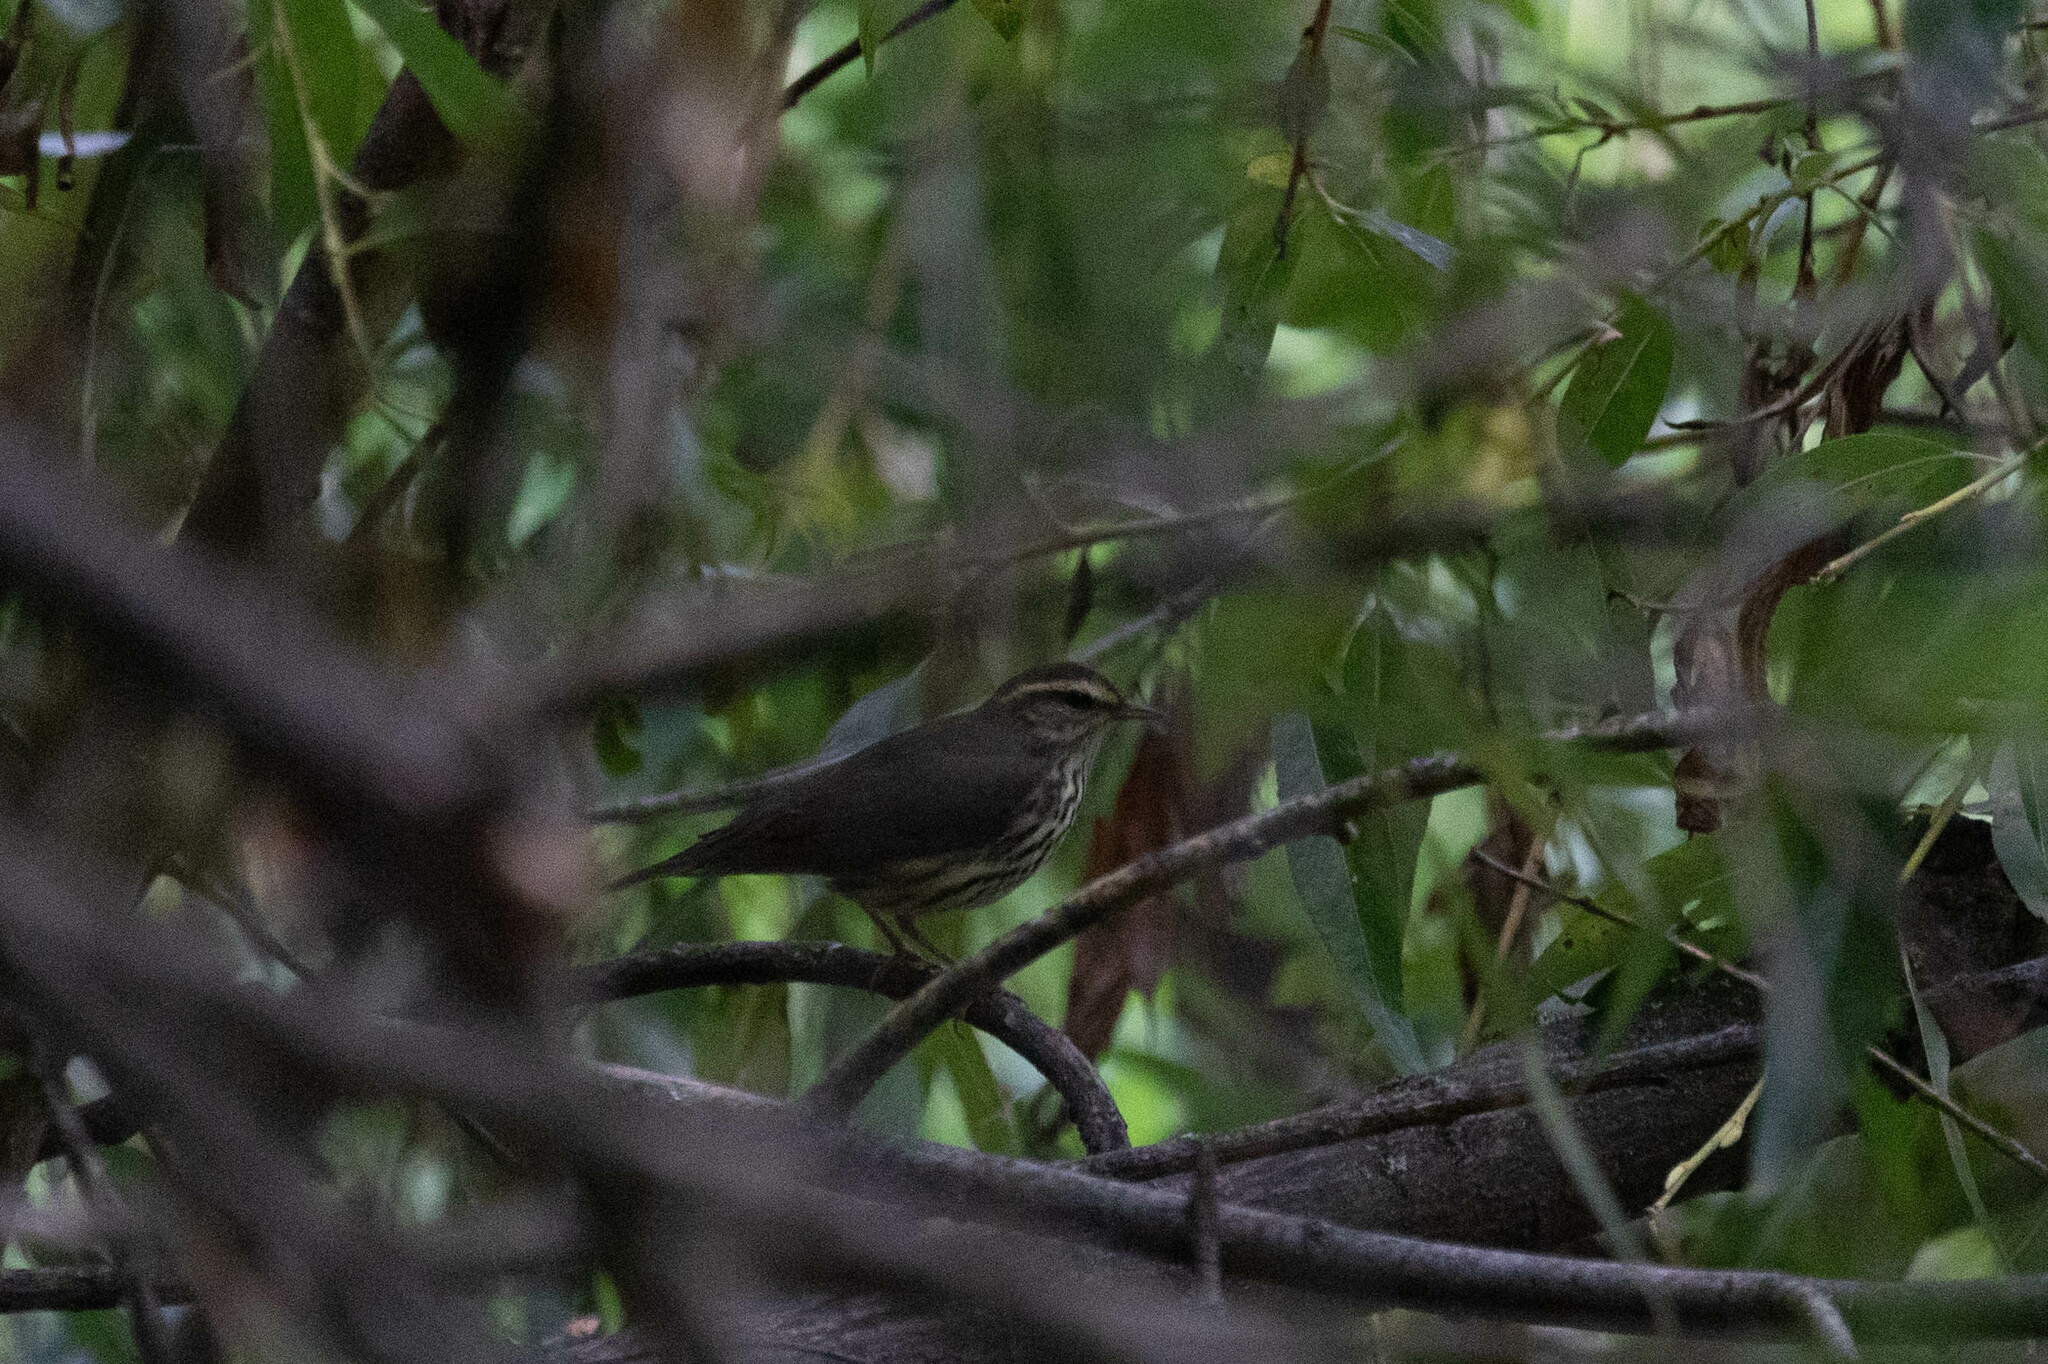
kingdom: Animalia
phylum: Chordata
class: Aves
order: Passeriformes
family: Parulidae
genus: Parkesia
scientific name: Parkesia noveboracensis
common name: Northern waterthrush
